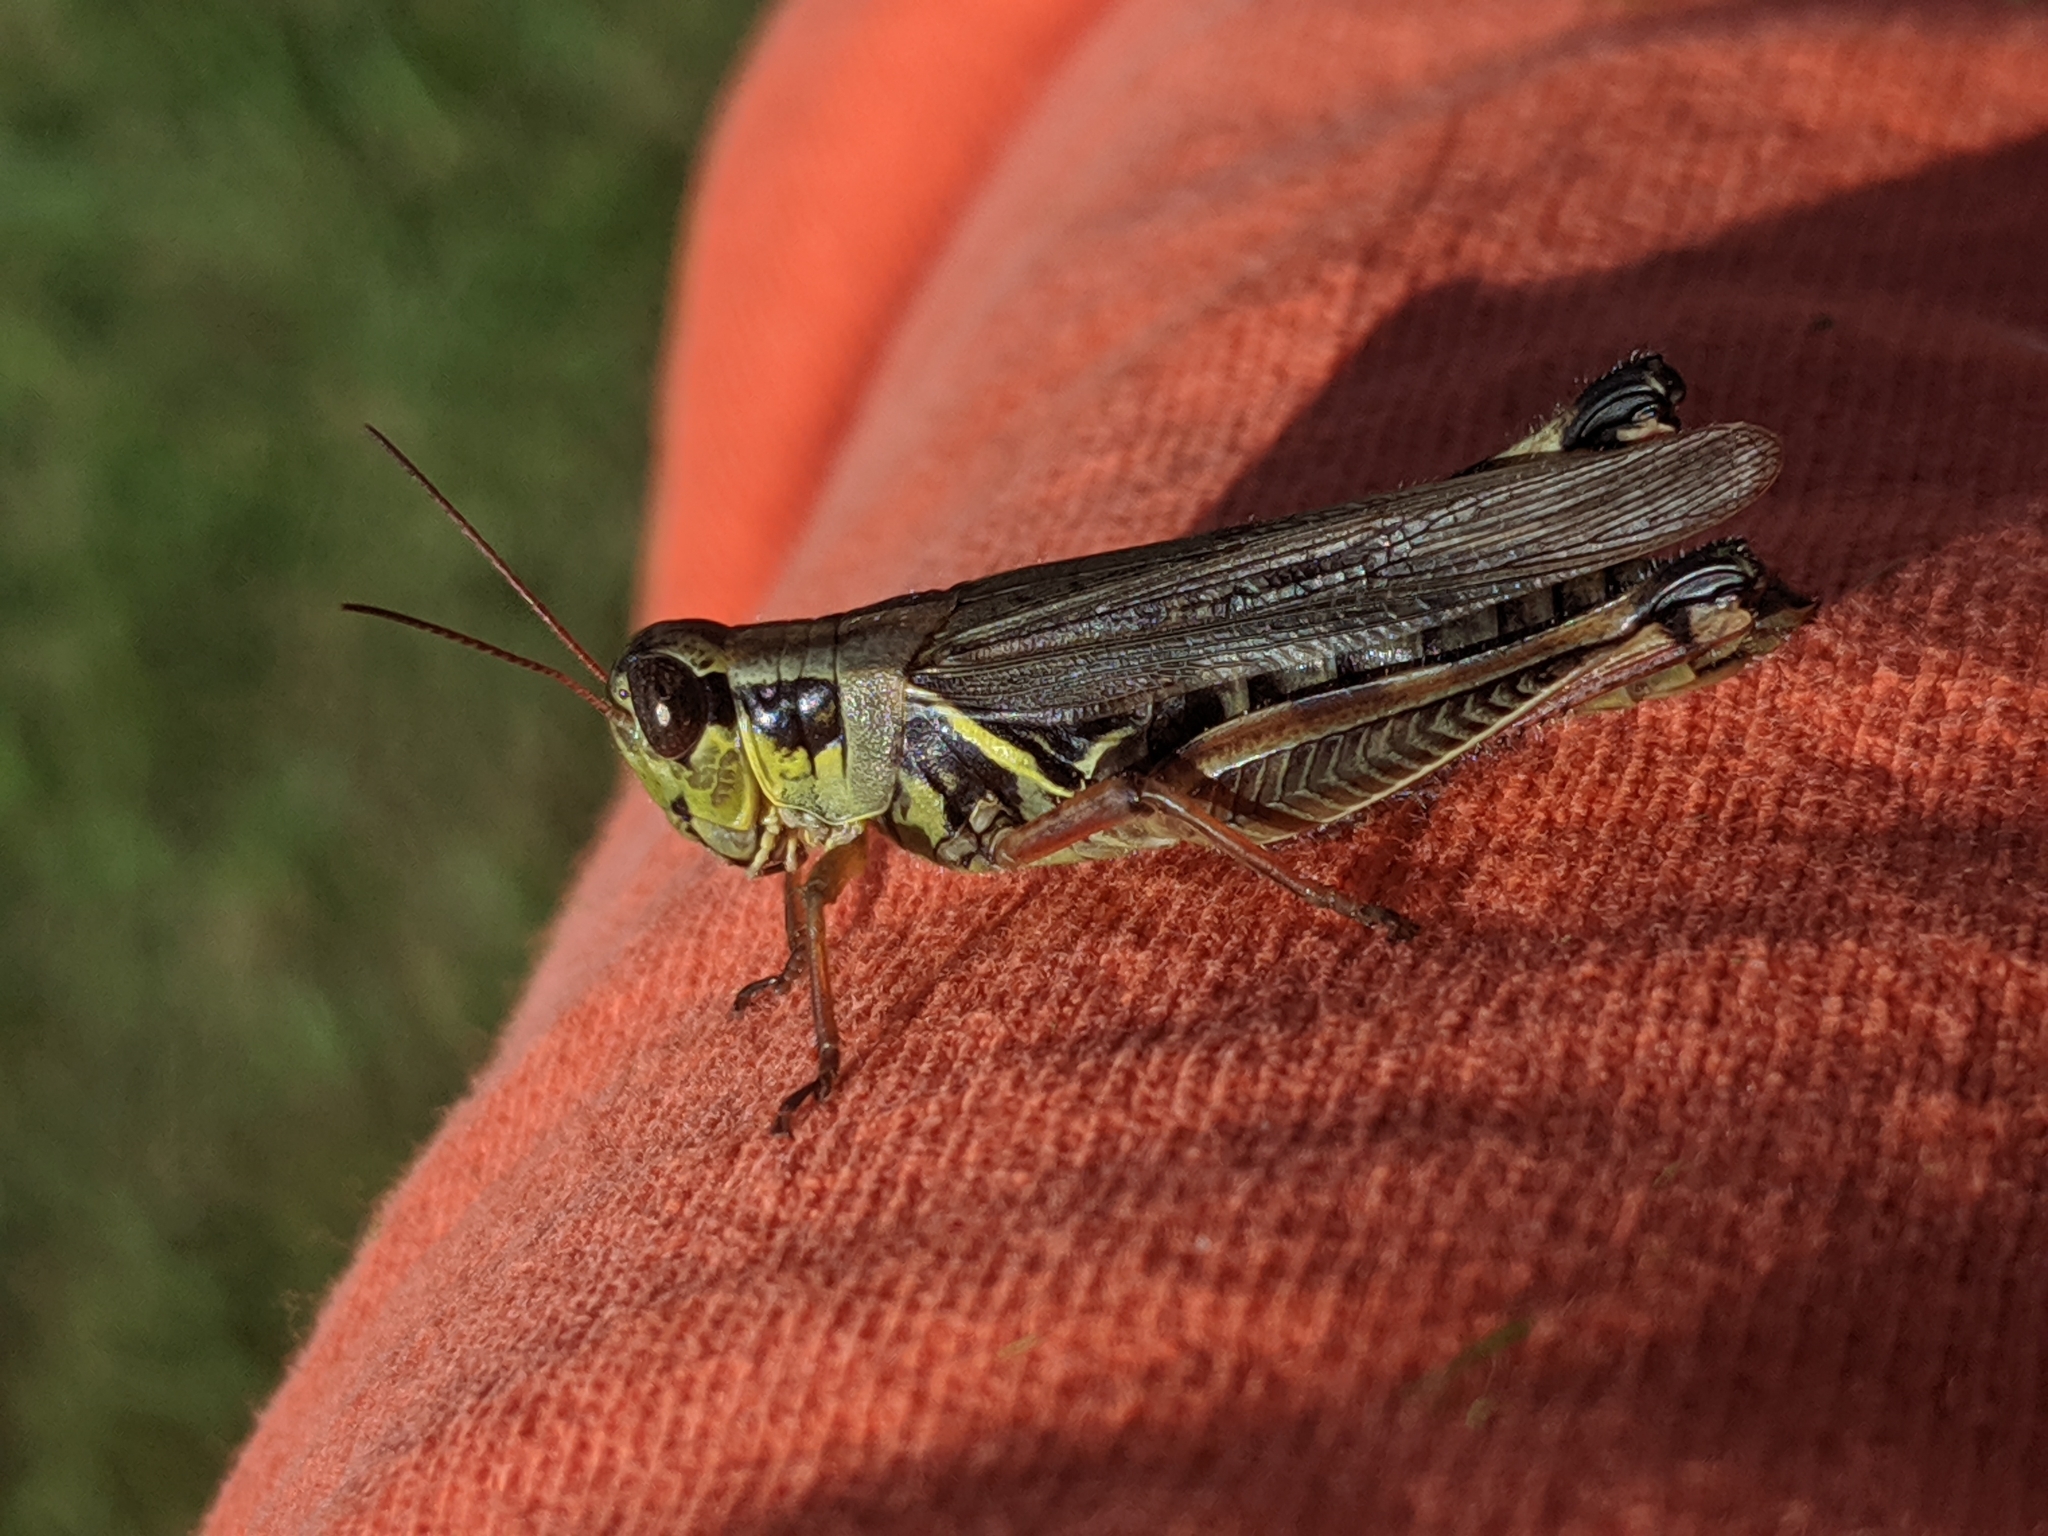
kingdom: Animalia
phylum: Arthropoda
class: Insecta
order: Orthoptera
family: Acrididae
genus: Melanoplus
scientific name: Melanoplus femurrubrum
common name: Red-legged grasshopper
